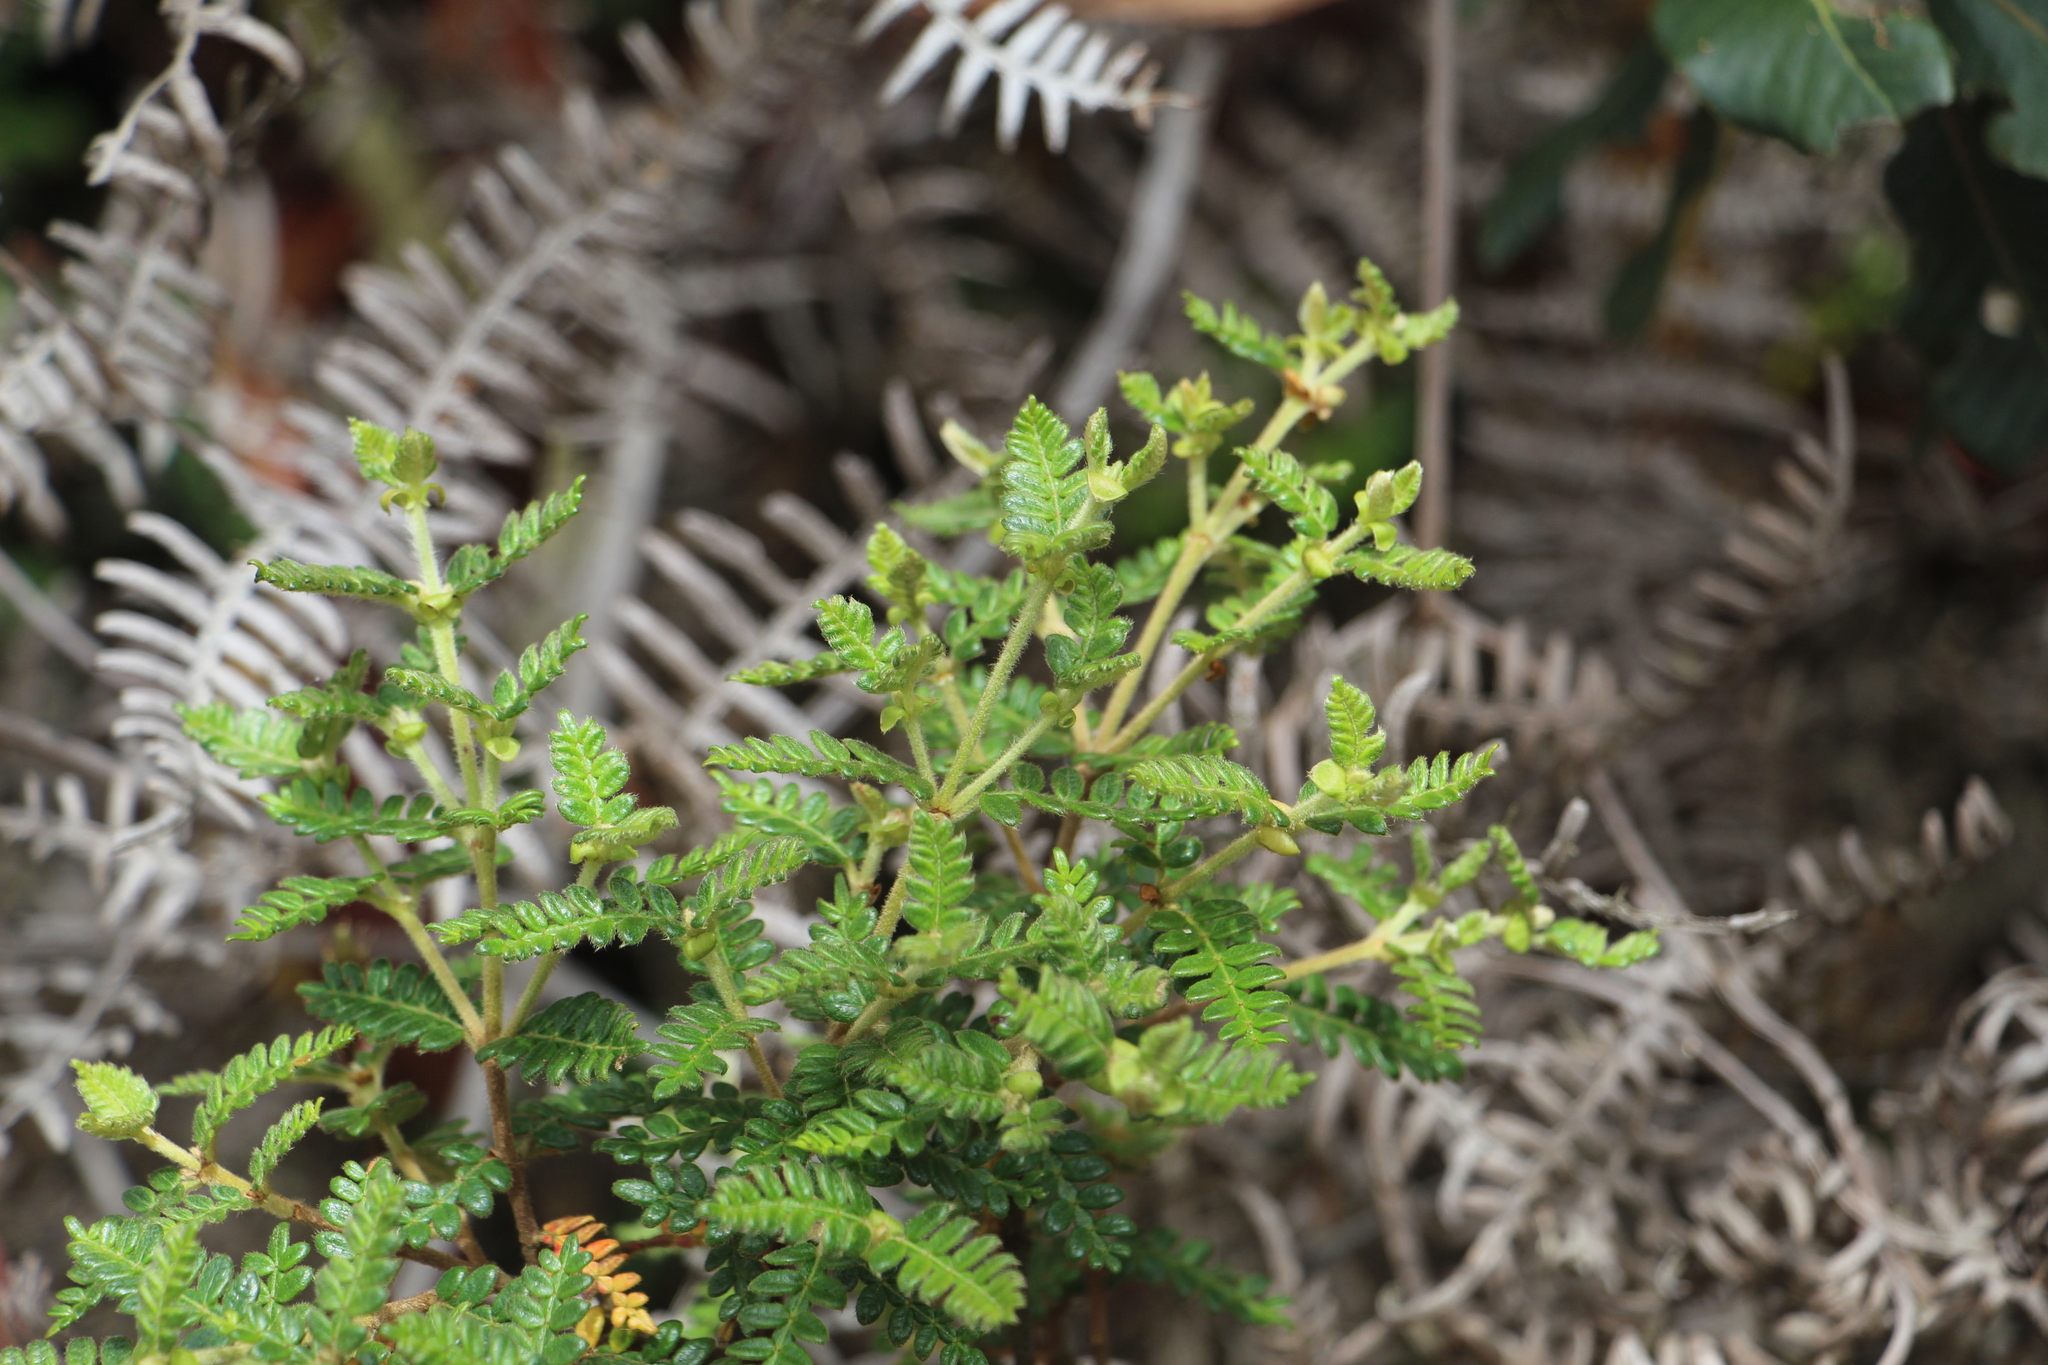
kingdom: Plantae
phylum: Tracheophyta
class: Magnoliopsida
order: Oxalidales
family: Cunoniaceae
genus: Weinmannia
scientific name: Weinmannia tomentosa
